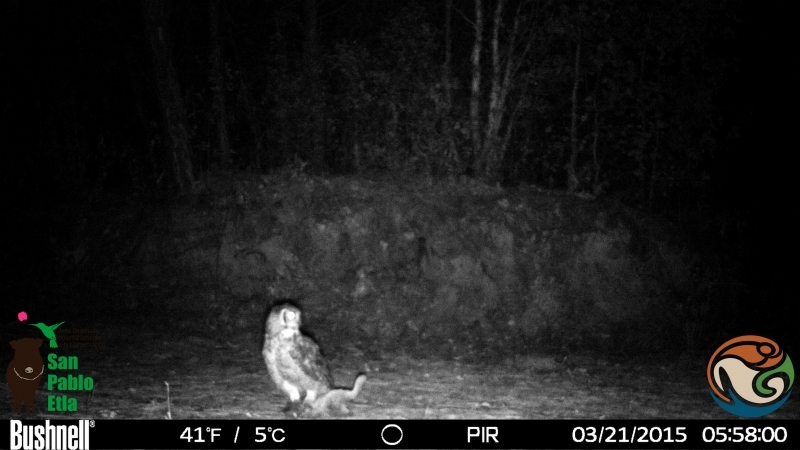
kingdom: Animalia
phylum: Chordata
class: Aves
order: Strigiformes
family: Strigidae
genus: Bubo
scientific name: Bubo virginianus
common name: Great horned owl
